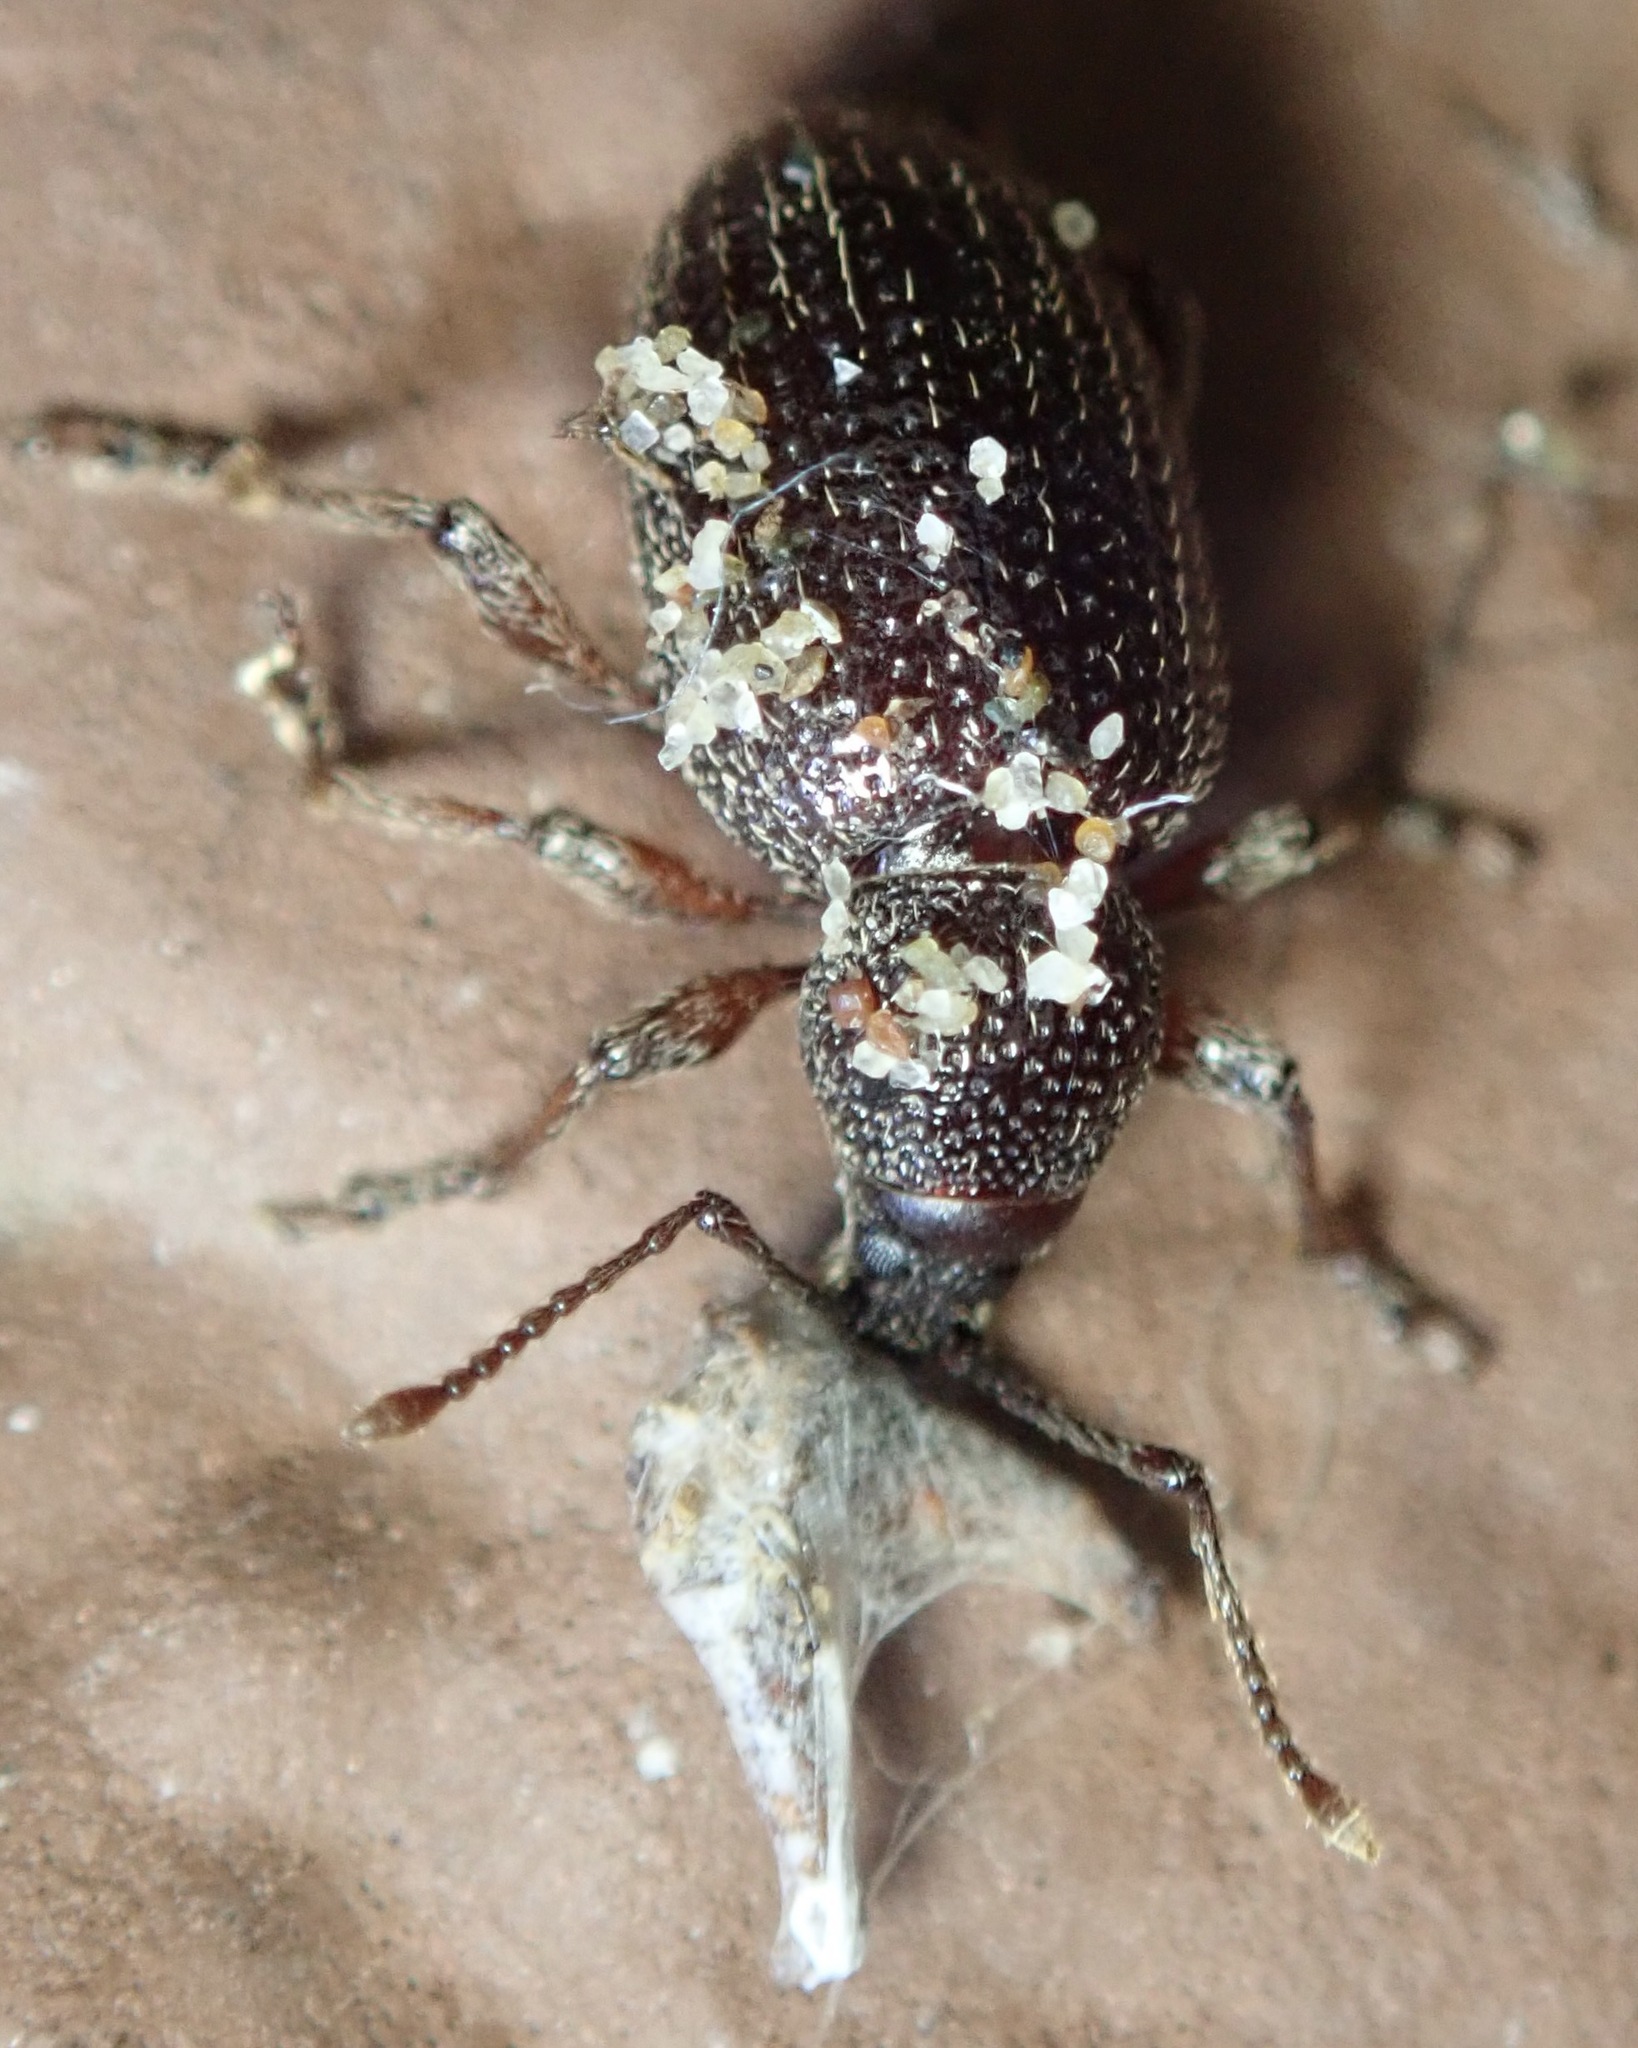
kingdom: Animalia
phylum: Arthropoda
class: Insecta
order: Coleoptera
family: Curculionidae
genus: Otiorhynchus
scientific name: Otiorhynchus cribricollis
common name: Weevil
